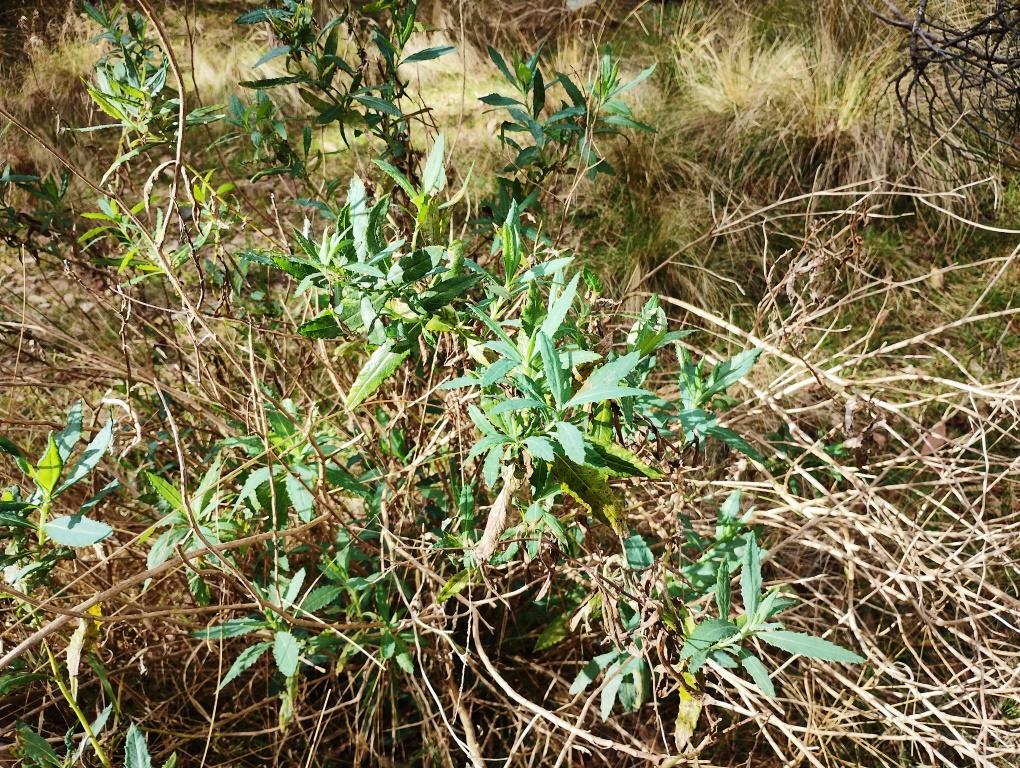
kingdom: Plantae
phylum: Tracheophyta
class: Magnoliopsida
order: Asterales
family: Asteraceae
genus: Senecio
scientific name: Senecio odoratus
